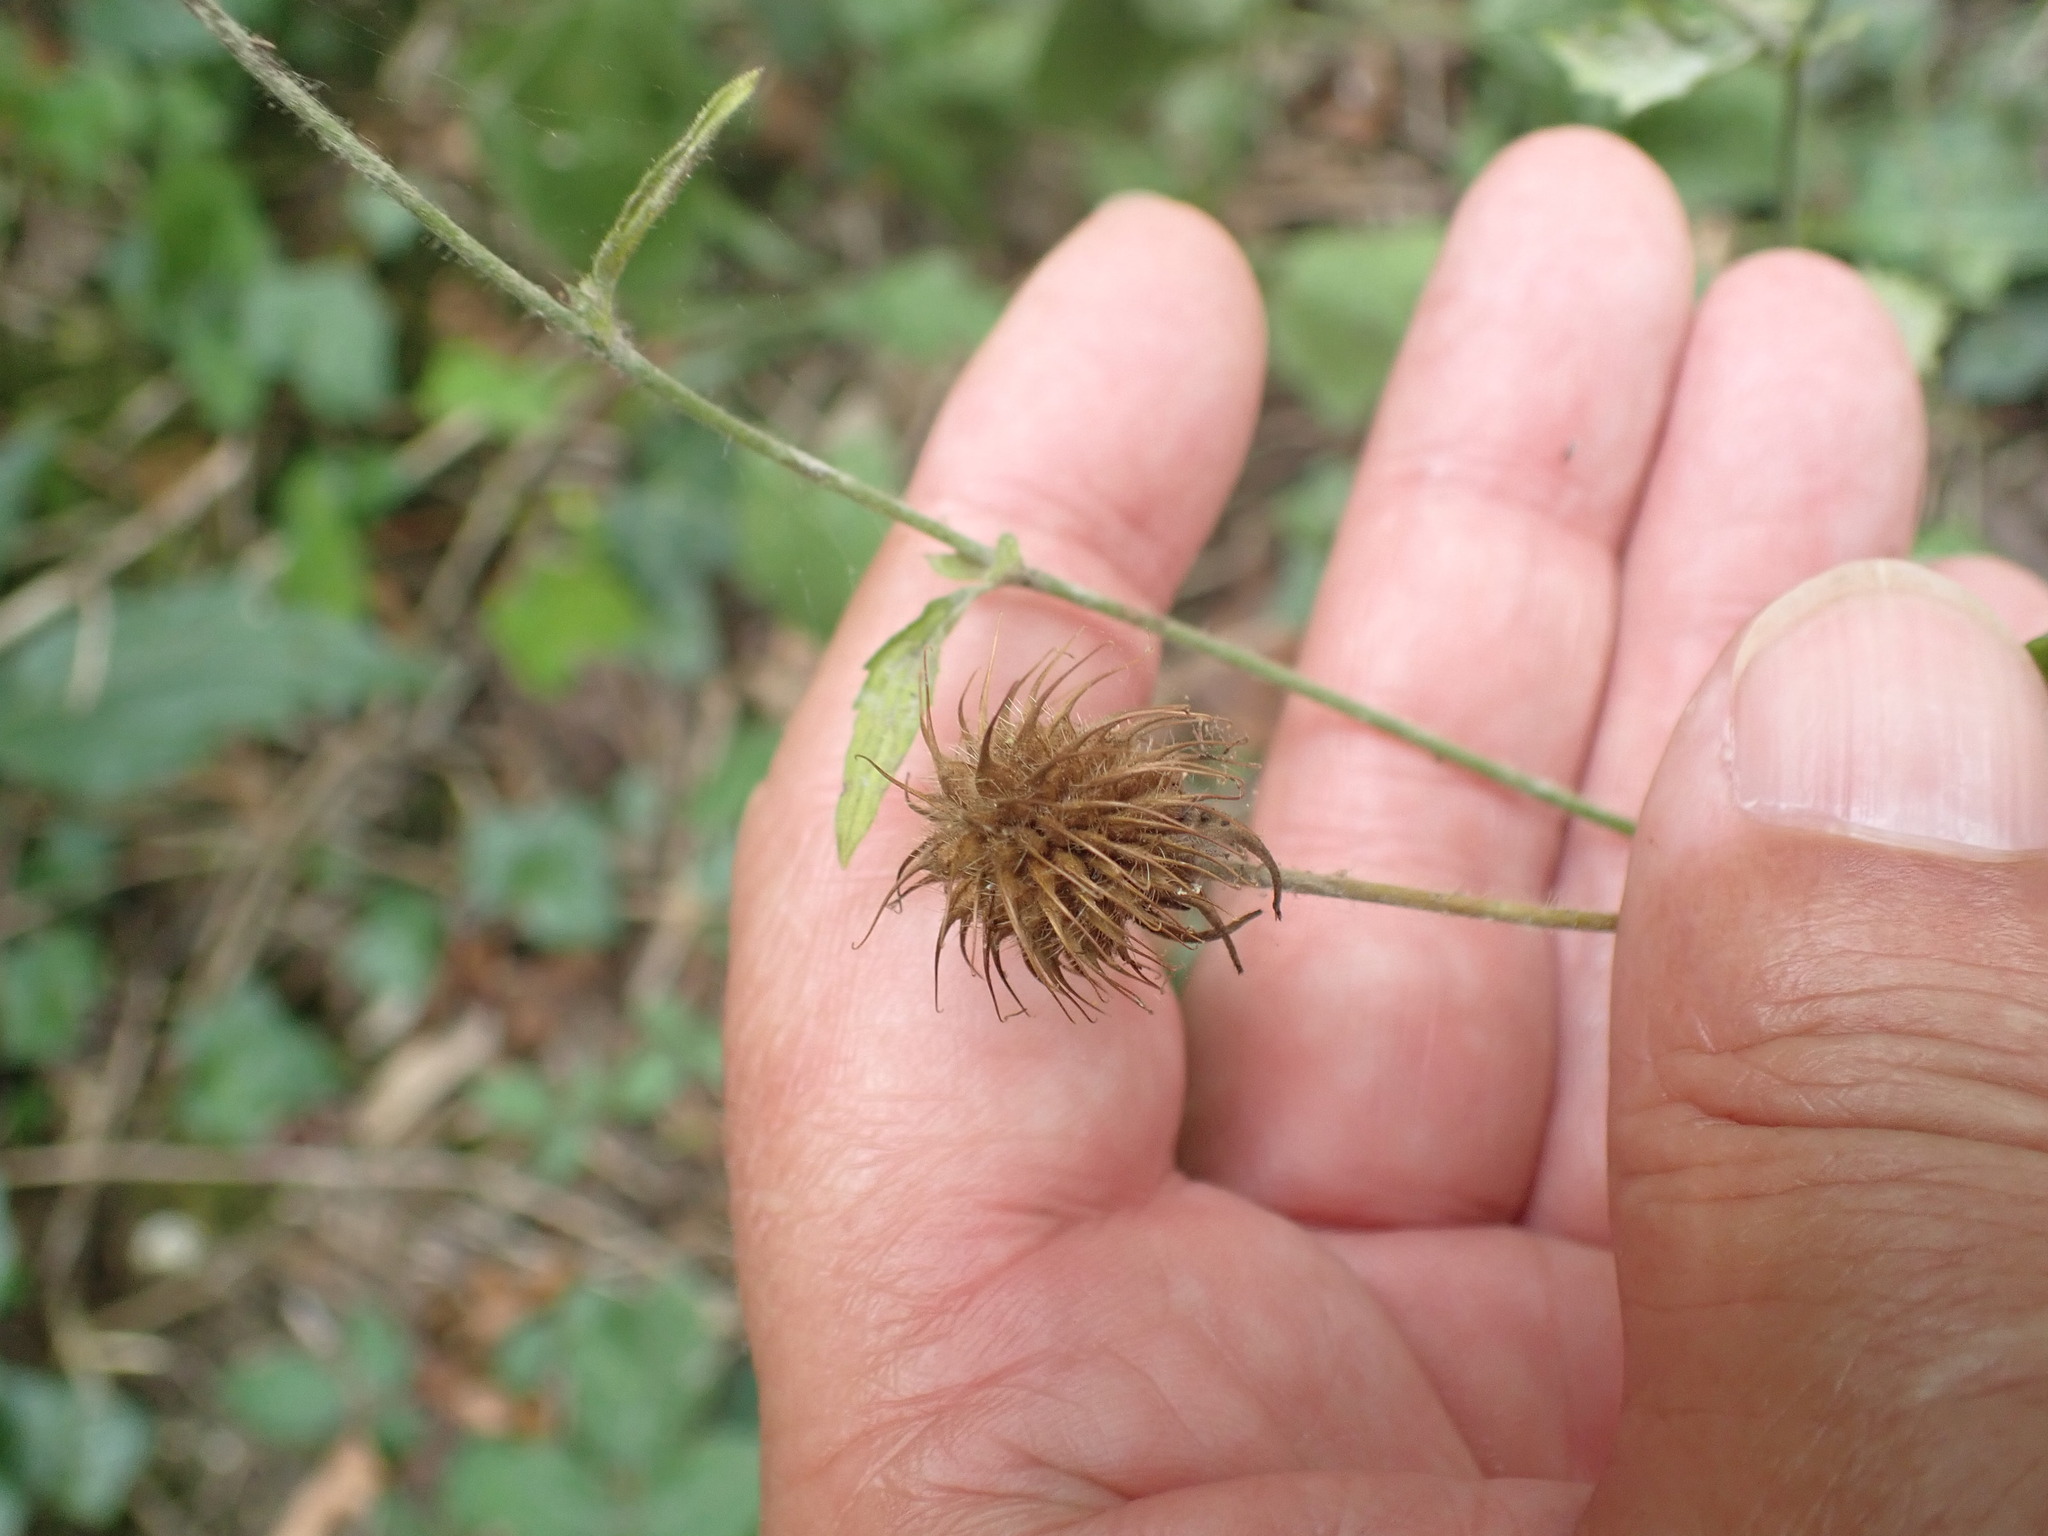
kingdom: Plantae
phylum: Tracheophyta
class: Magnoliopsida
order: Rosales
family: Rosaceae
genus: Geum
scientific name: Geum urbanum
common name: Wood avens
